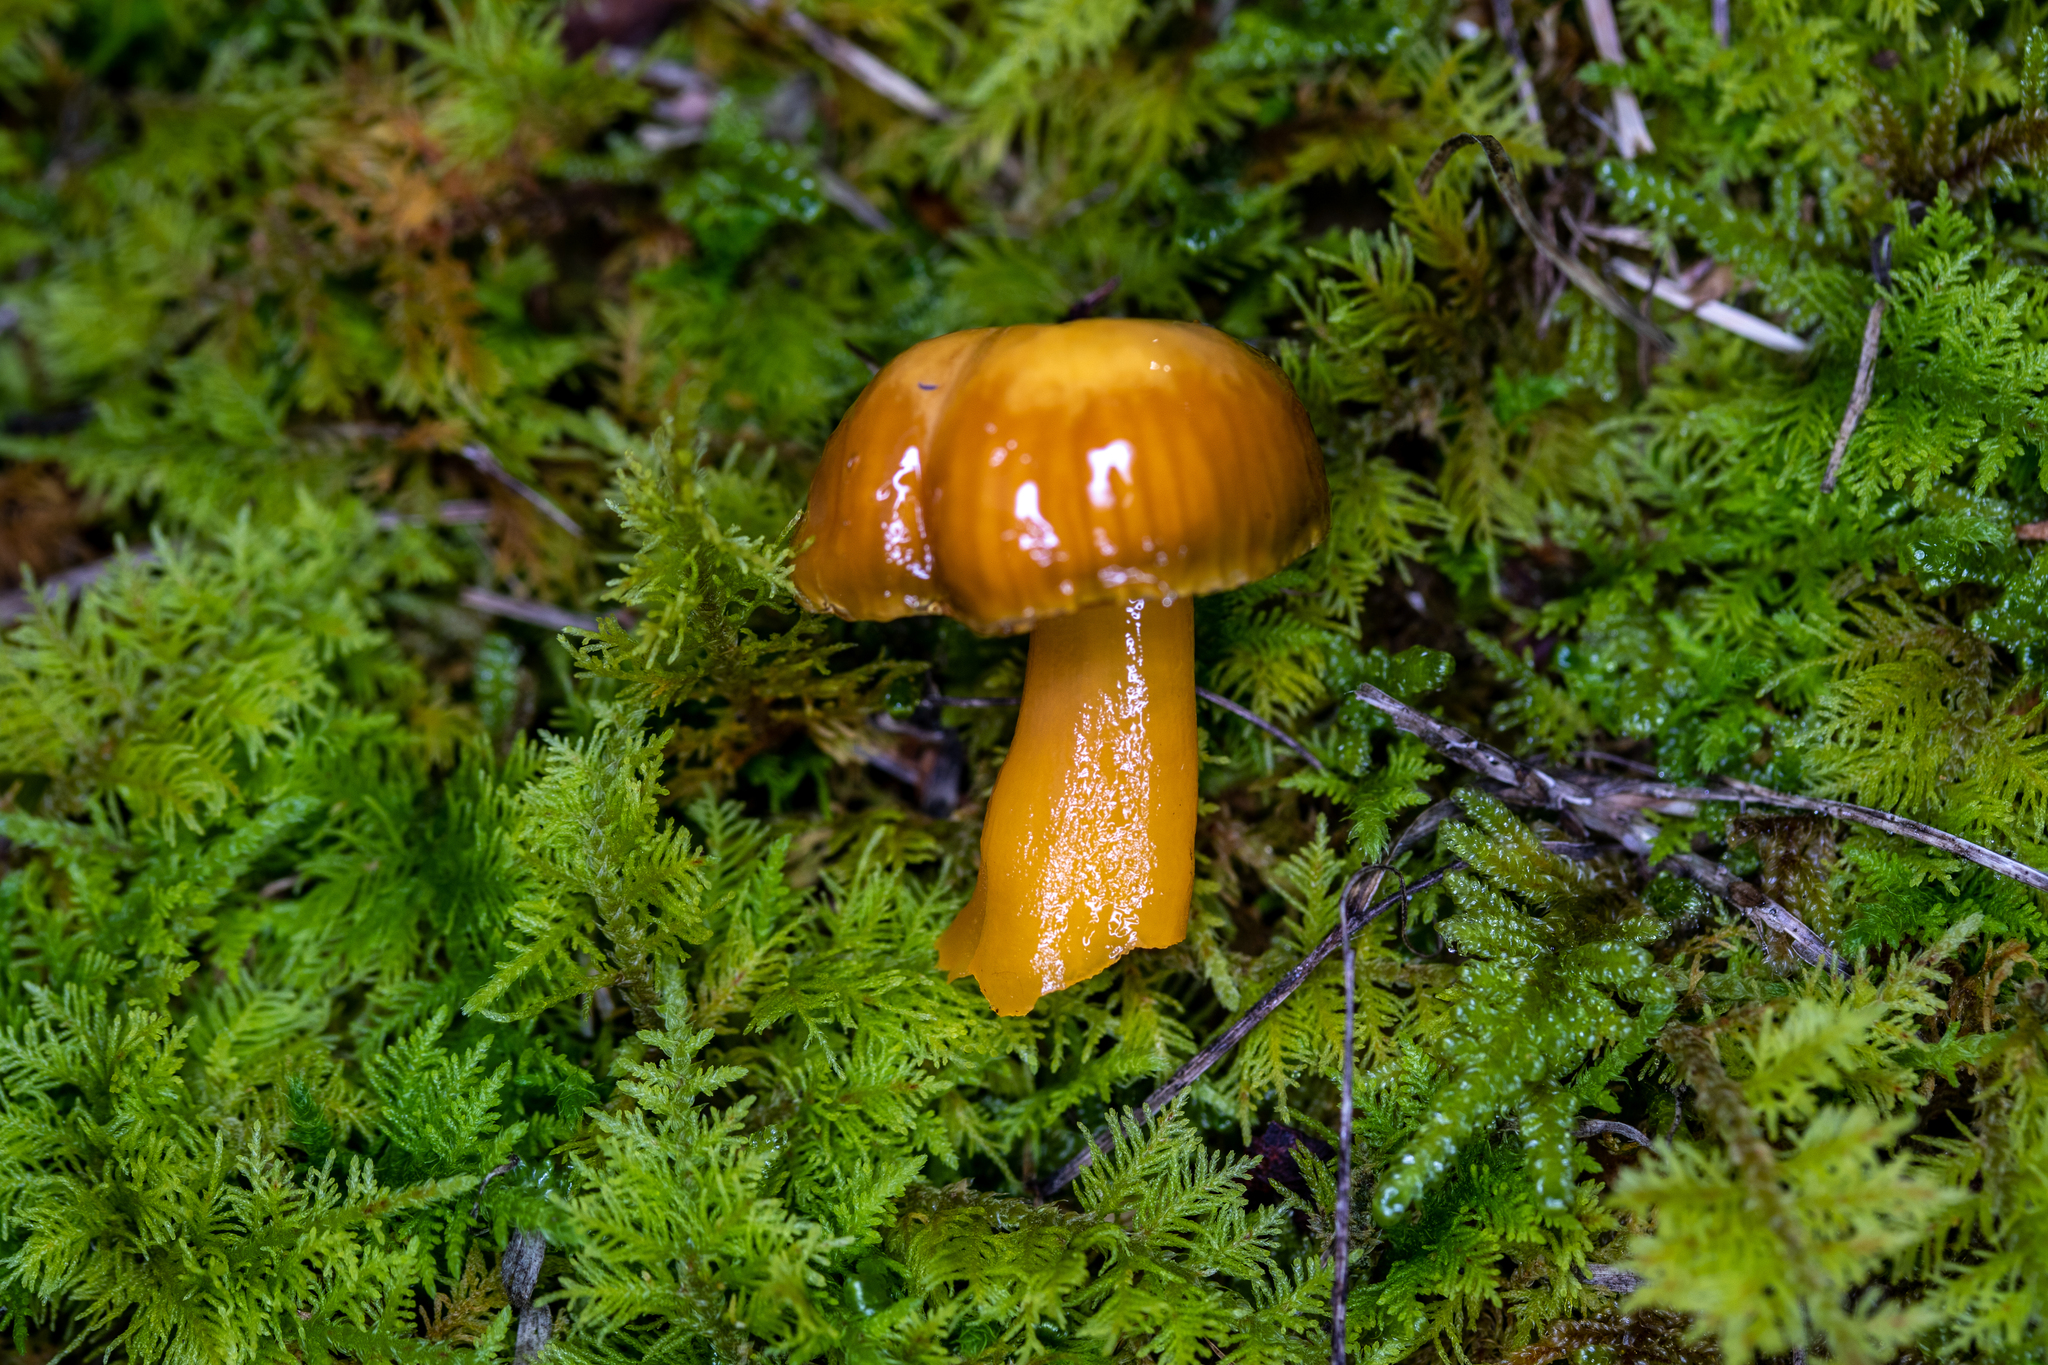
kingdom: Fungi
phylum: Basidiomycota
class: Agaricomycetes
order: Agaricales
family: Hygrophoraceae
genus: Gliophorus
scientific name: Gliophorus psittacinus
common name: Parrot wax-cap
